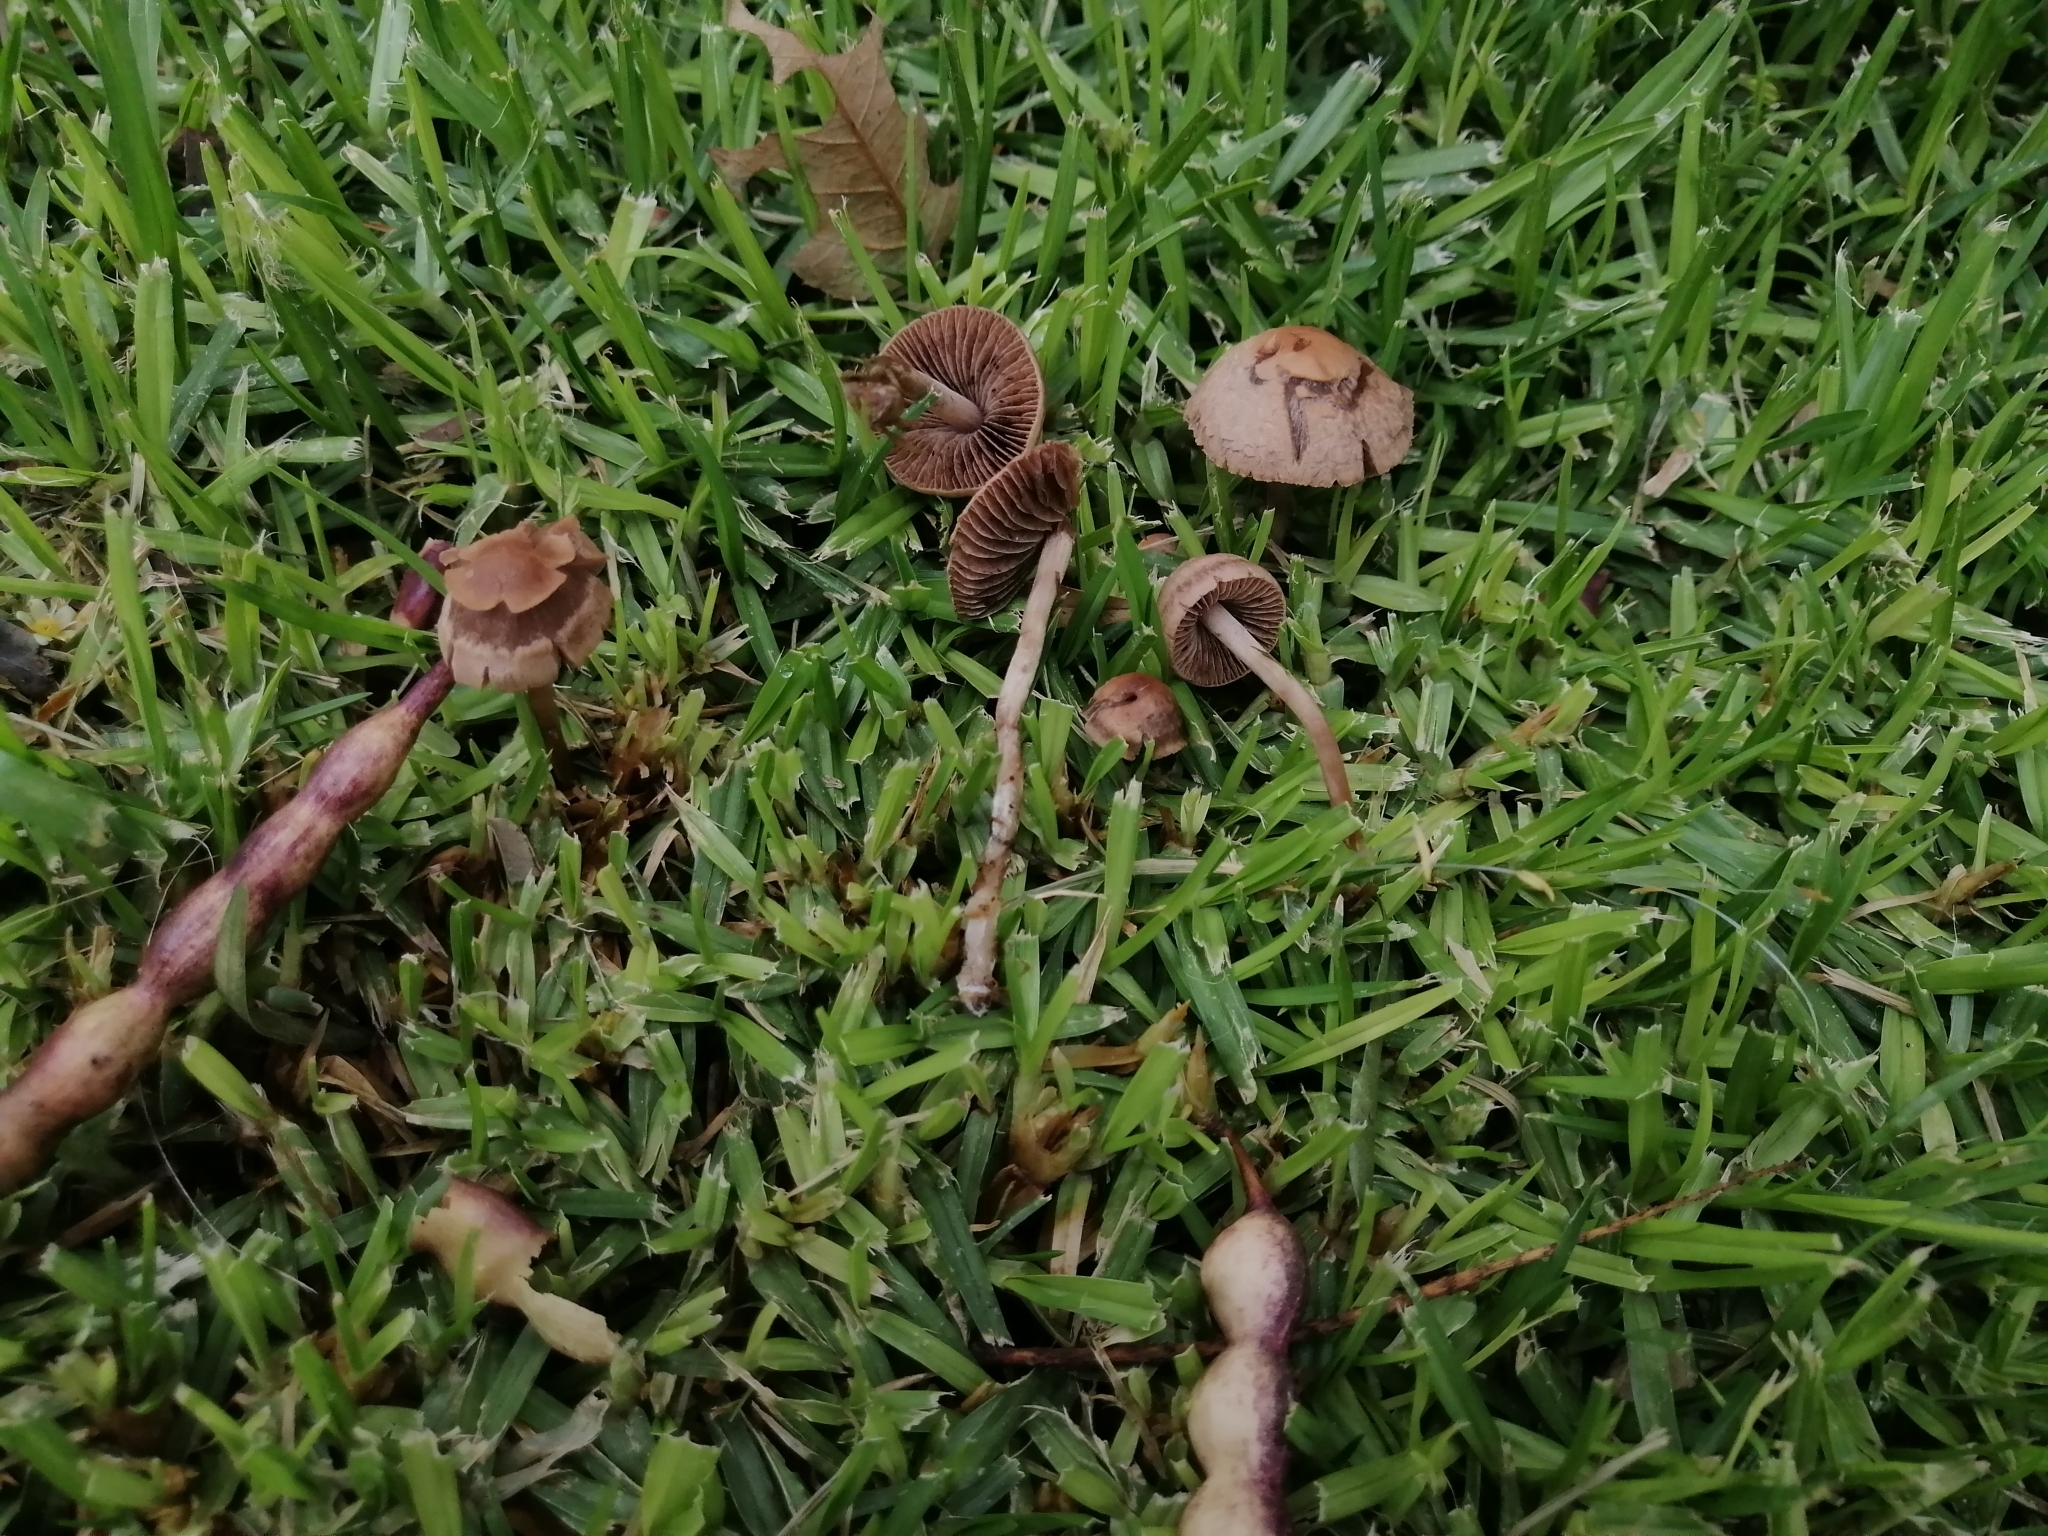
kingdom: Fungi
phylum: Basidiomycota
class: Agaricomycetes
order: Agaricales
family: Bolbitiaceae
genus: Panaeolina
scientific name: Panaeolina foenisecii
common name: Brown hay cap
